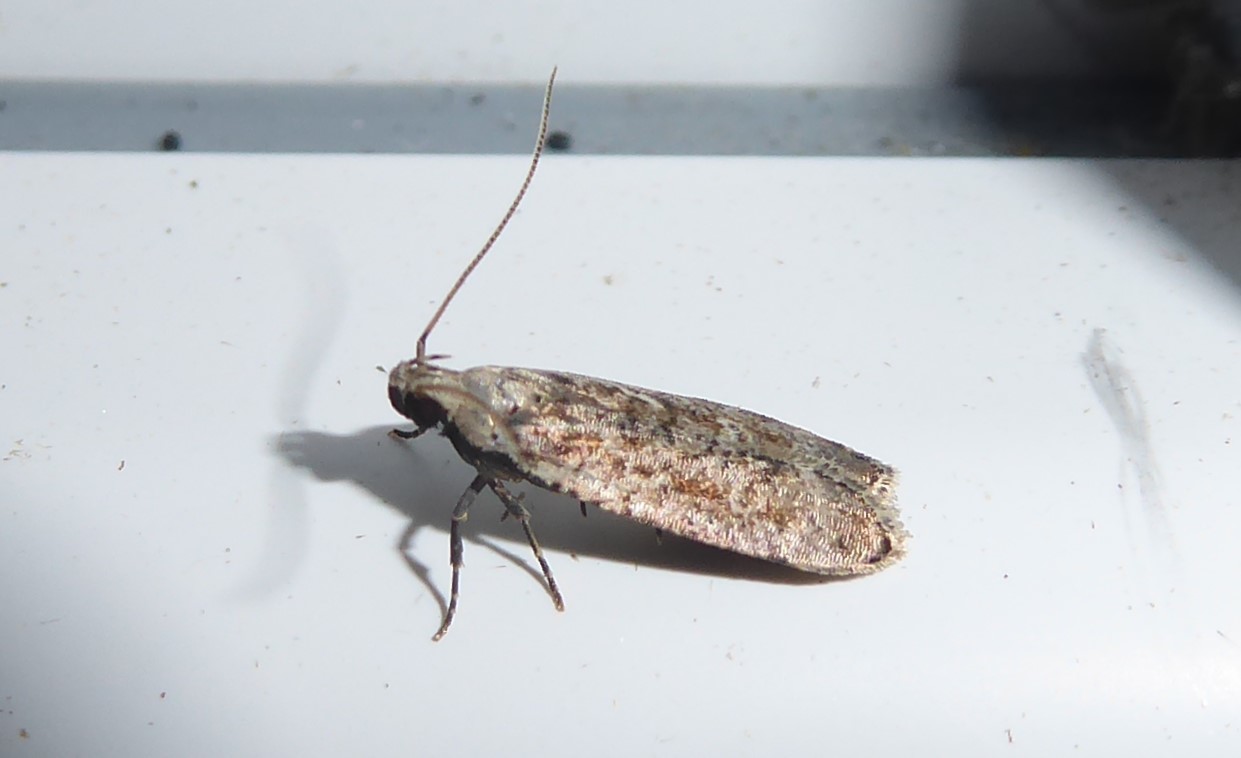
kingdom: Animalia
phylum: Arthropoda
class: Insecta
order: Lepidoptera
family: Gelechiidae
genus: Anisoplaca
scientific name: Anisoplaca achyrota
